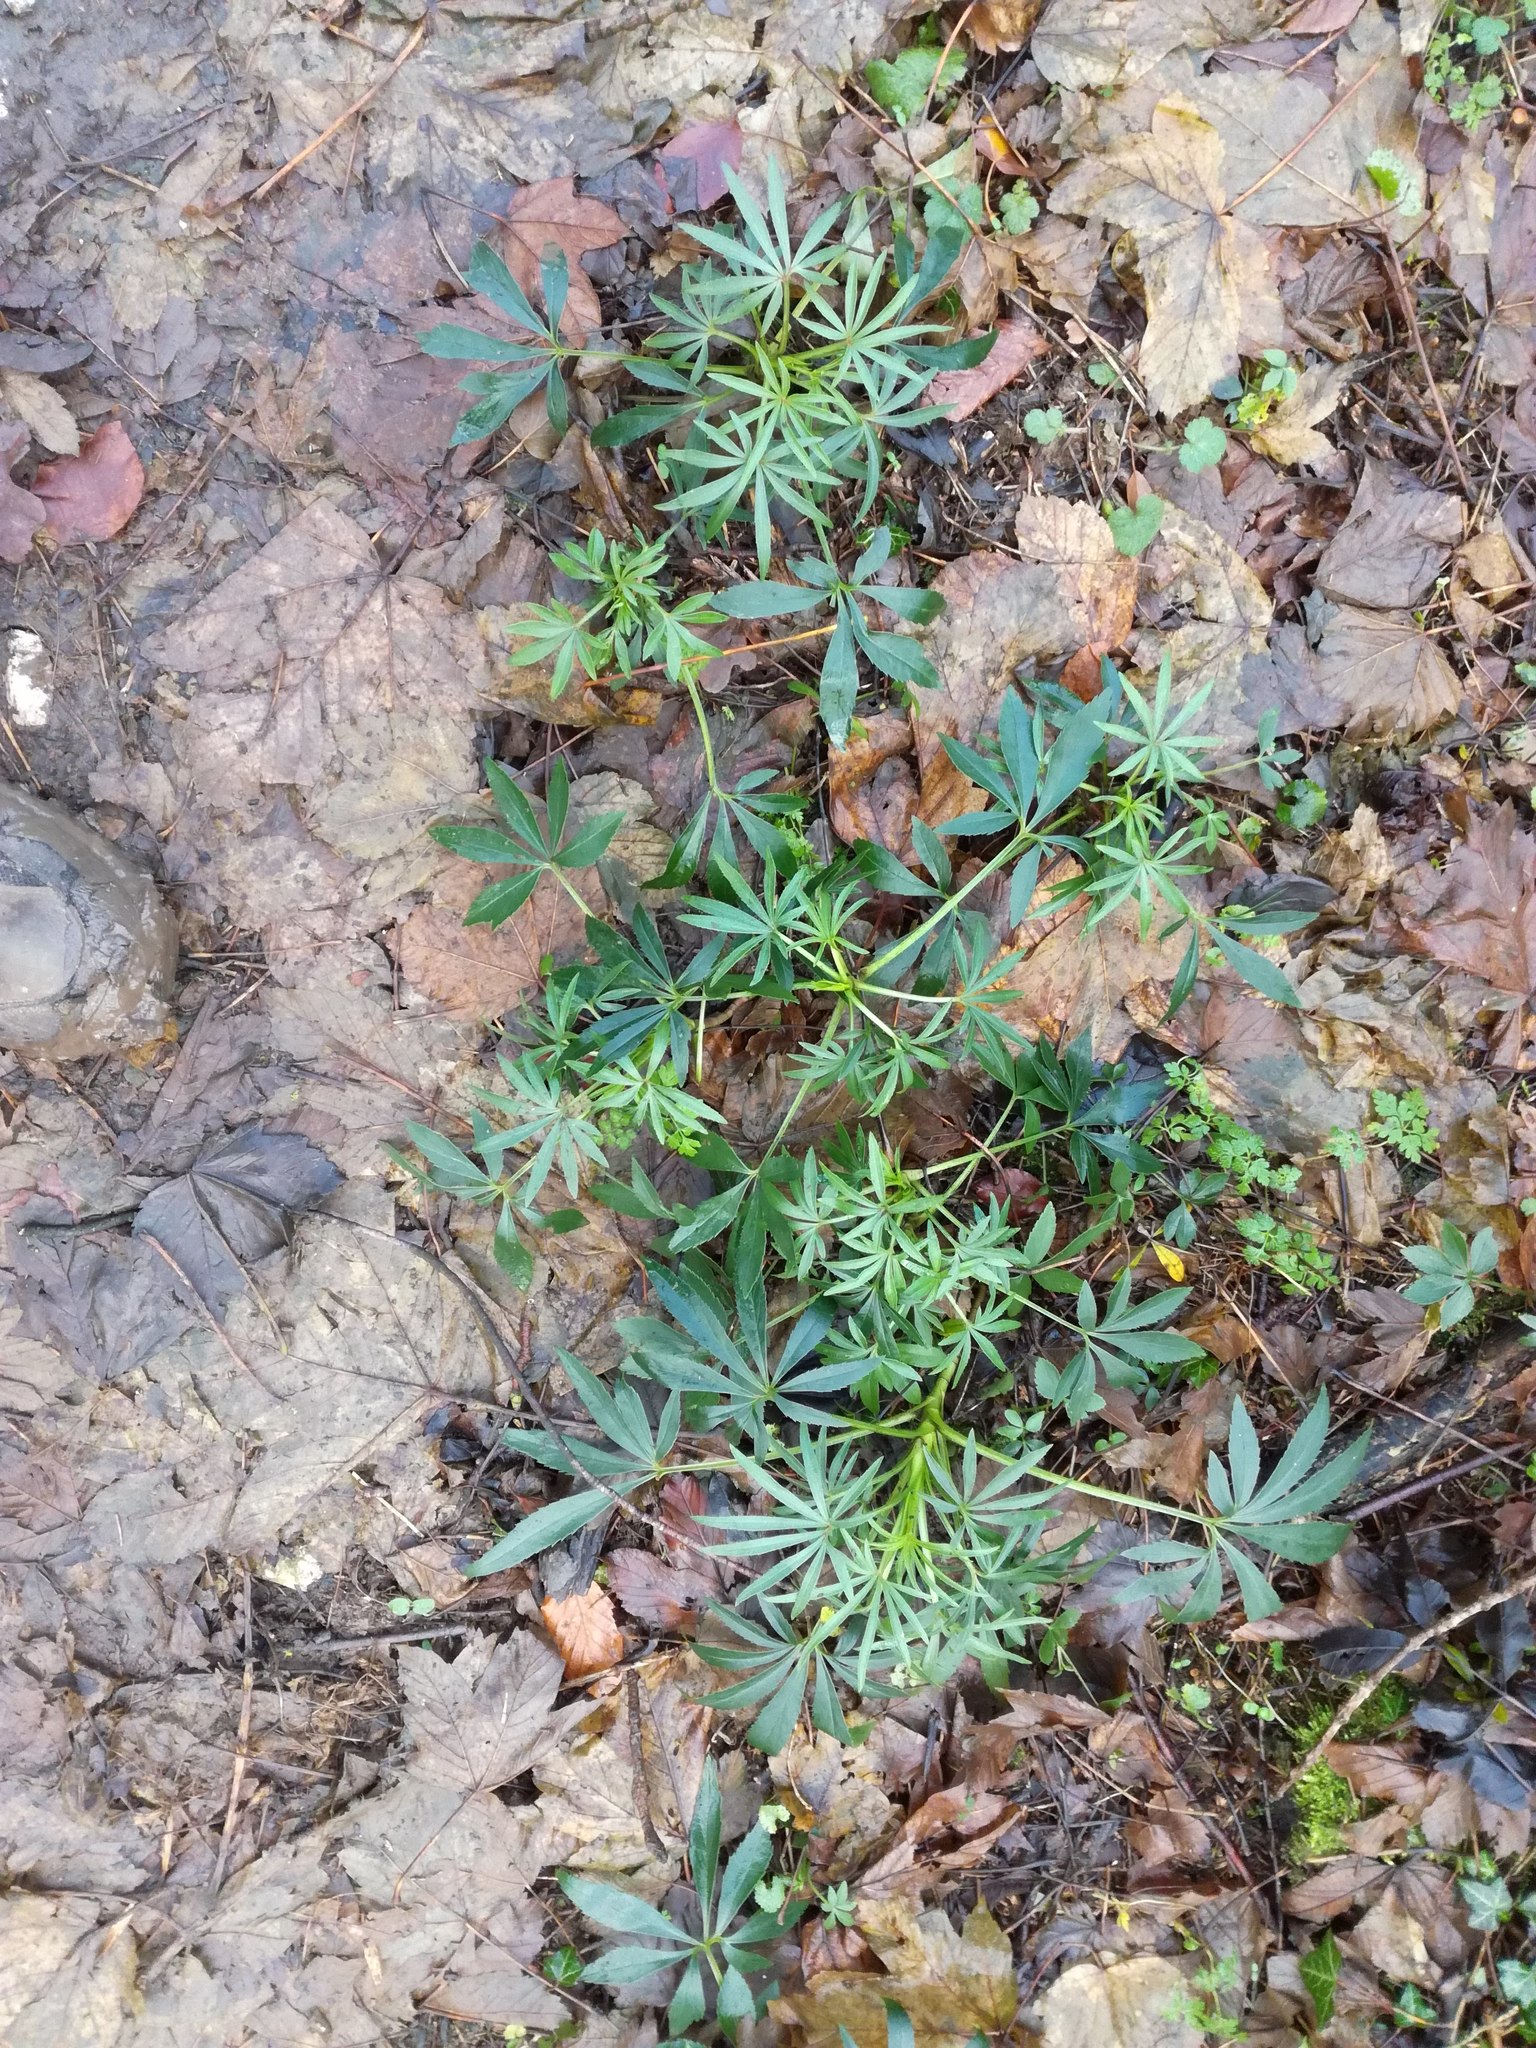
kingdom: Plantae
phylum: Tracheophyta
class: Magnoliopsida
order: Ranunculales
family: Ranunculaceae
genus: Helleborus
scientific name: Helleborus foetidus
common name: Stinking hellebore
